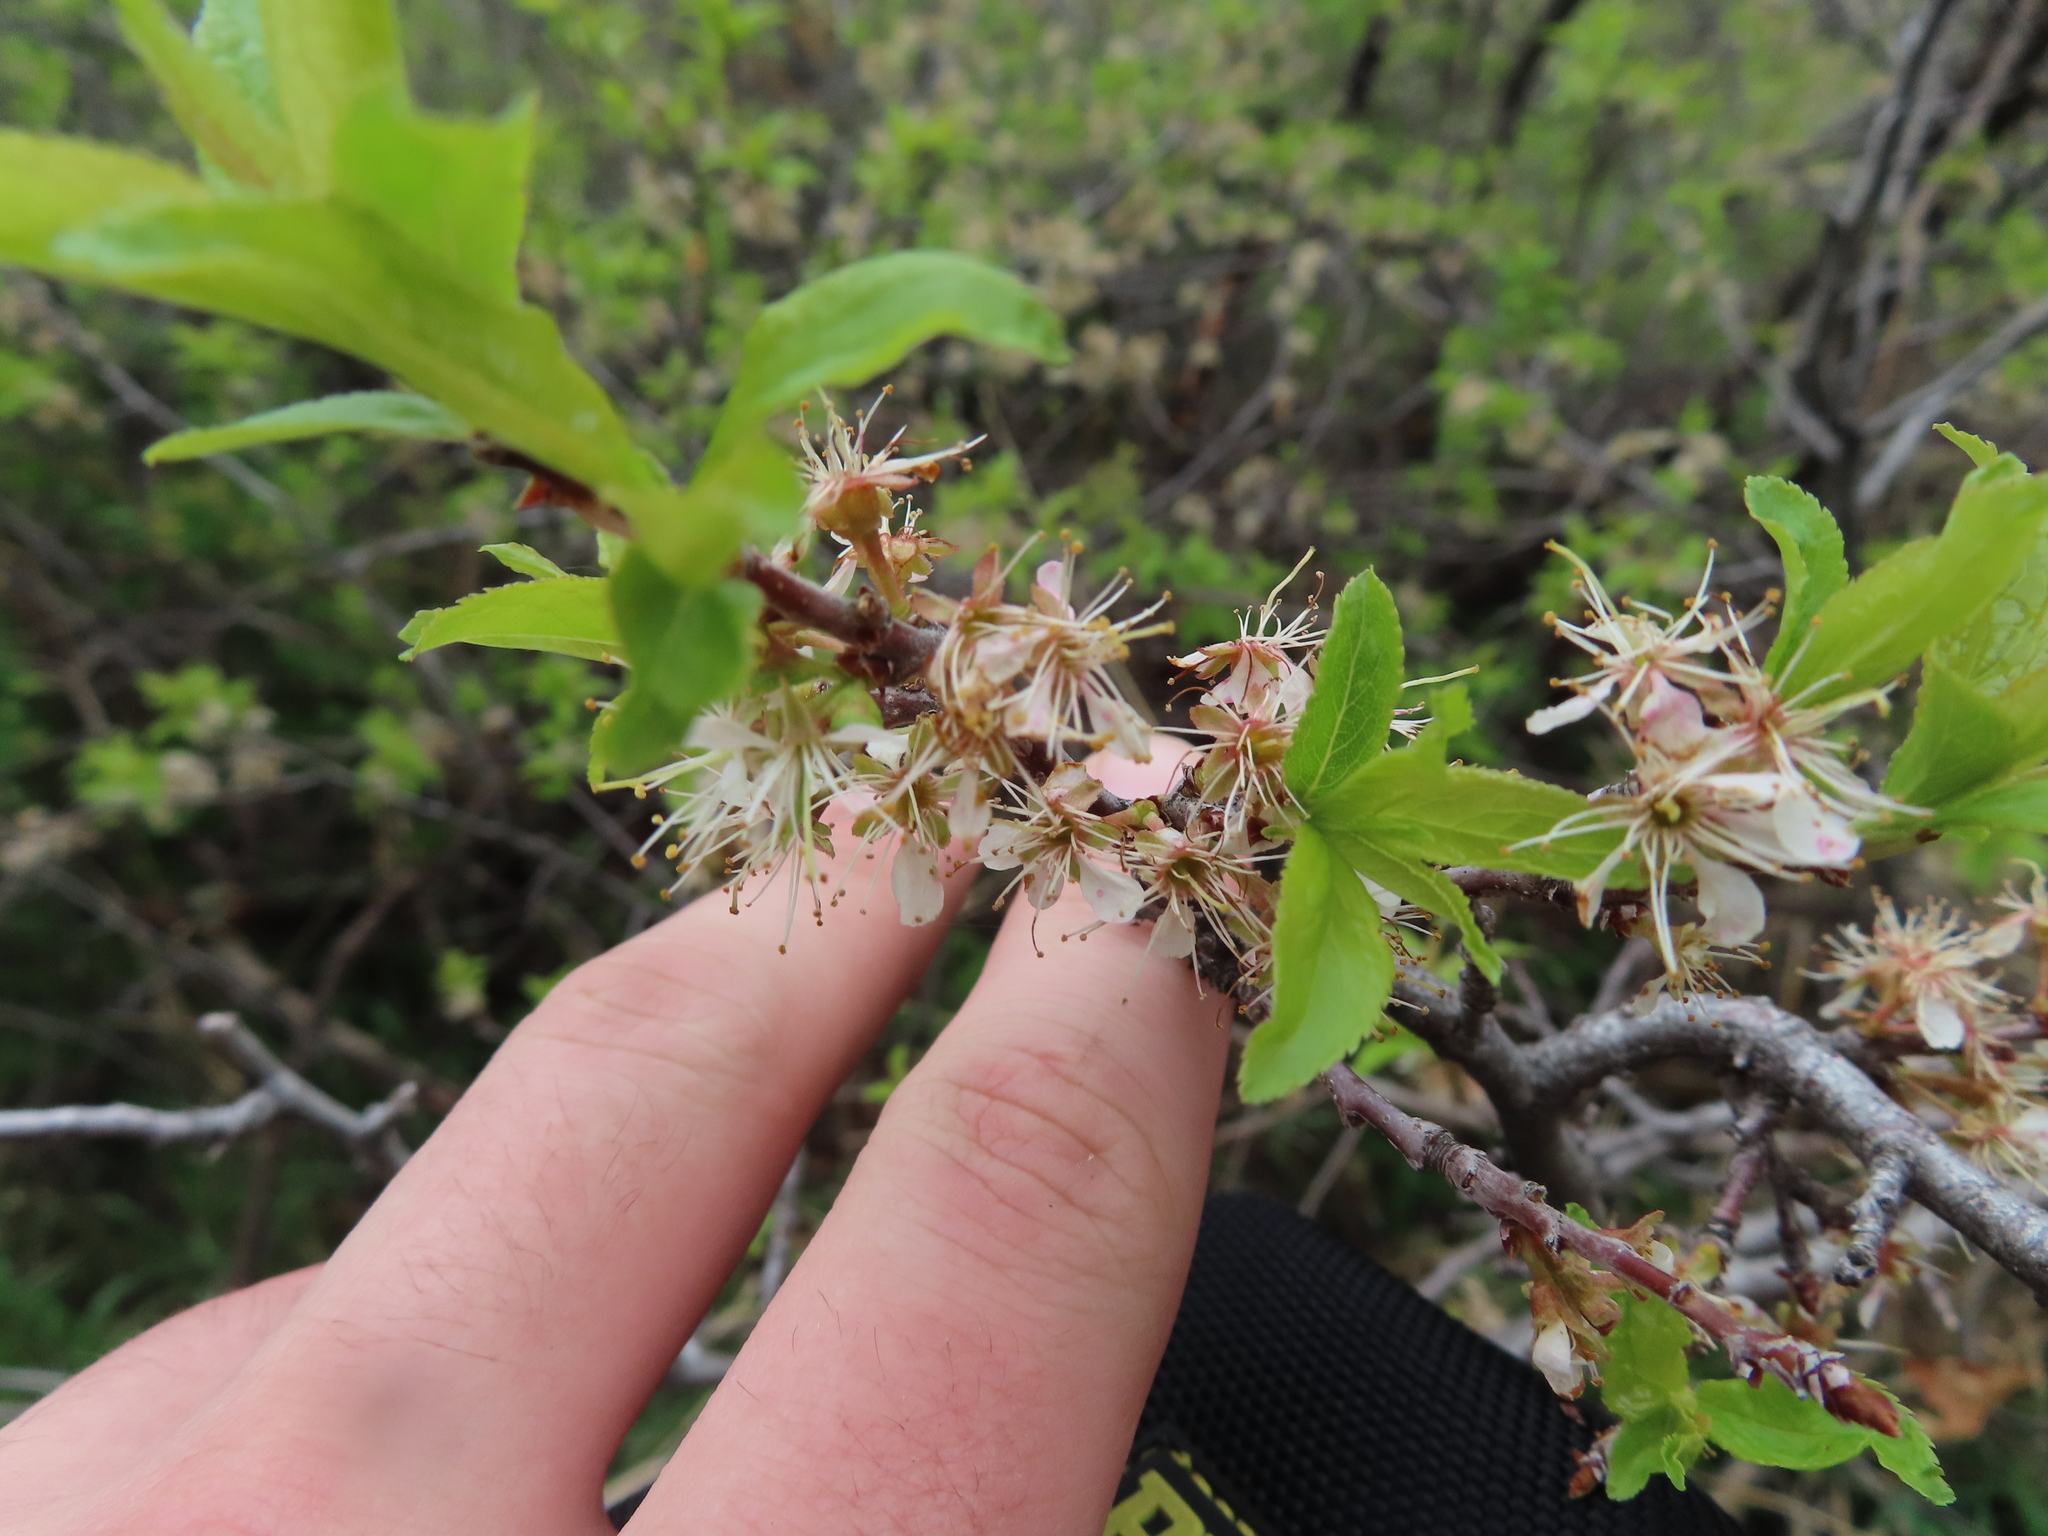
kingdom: Plantae
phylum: Tracheophyta
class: Magnoliopsida
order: Rosales
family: Rosaceae
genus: Prunus
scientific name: Prunus americana
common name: American plum
